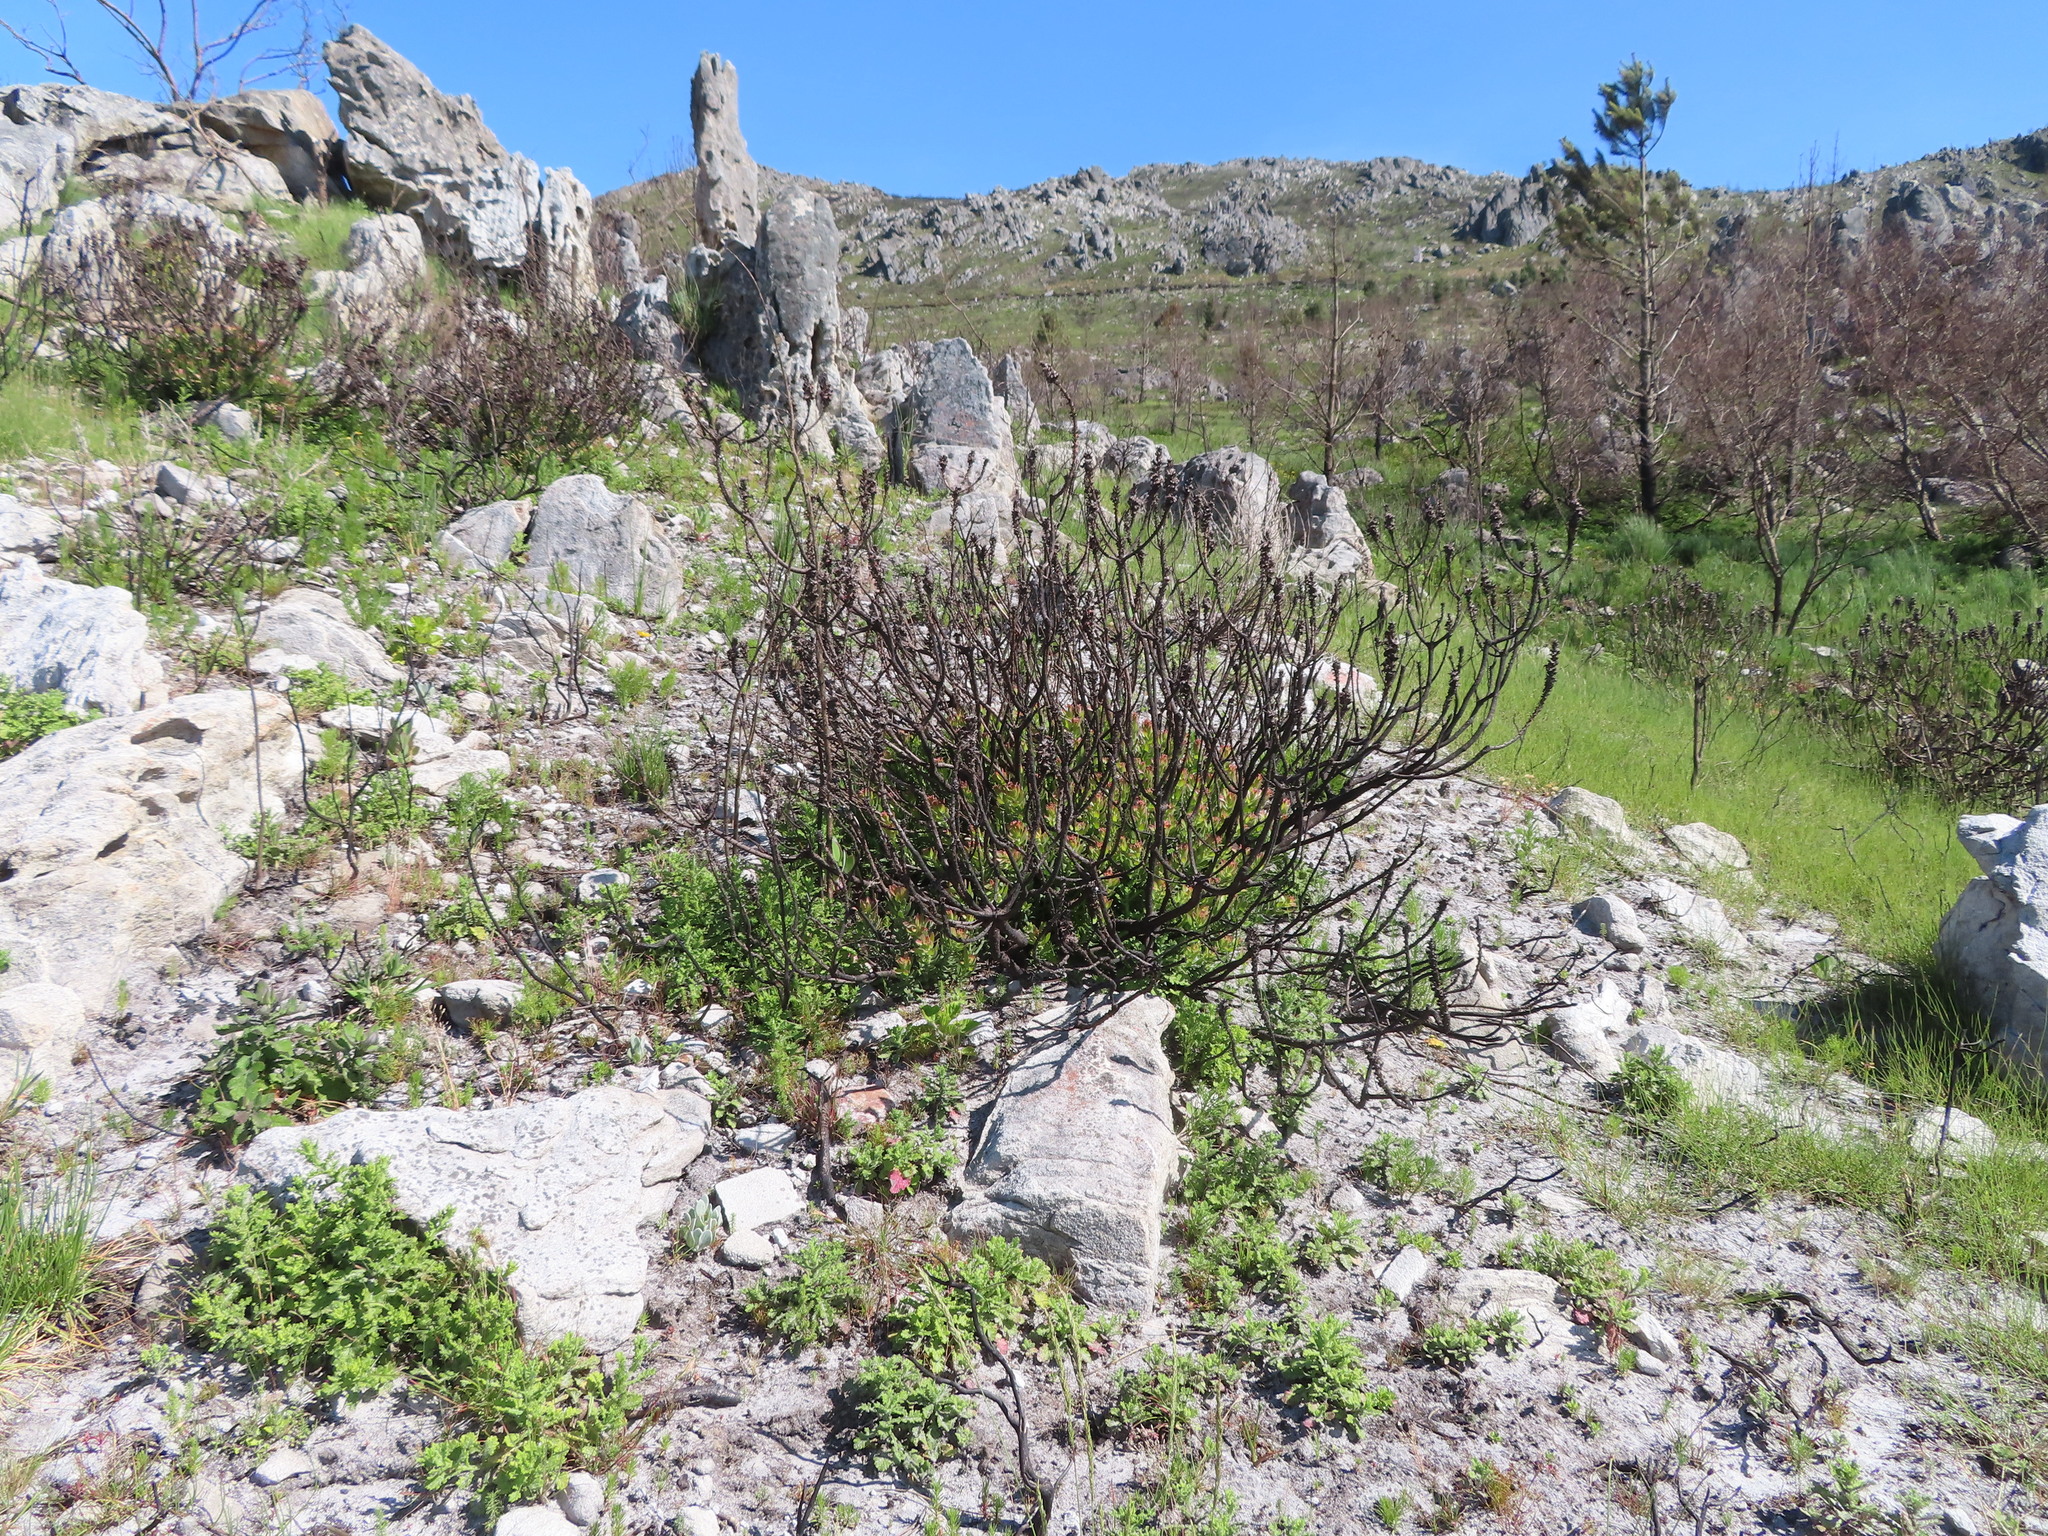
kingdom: Plantae
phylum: Tracheophyta
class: Magnoliopsida
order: Proteales
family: Proteaceae
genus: Mimetes
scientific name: Mimetes cucullatus
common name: Common pagoda
